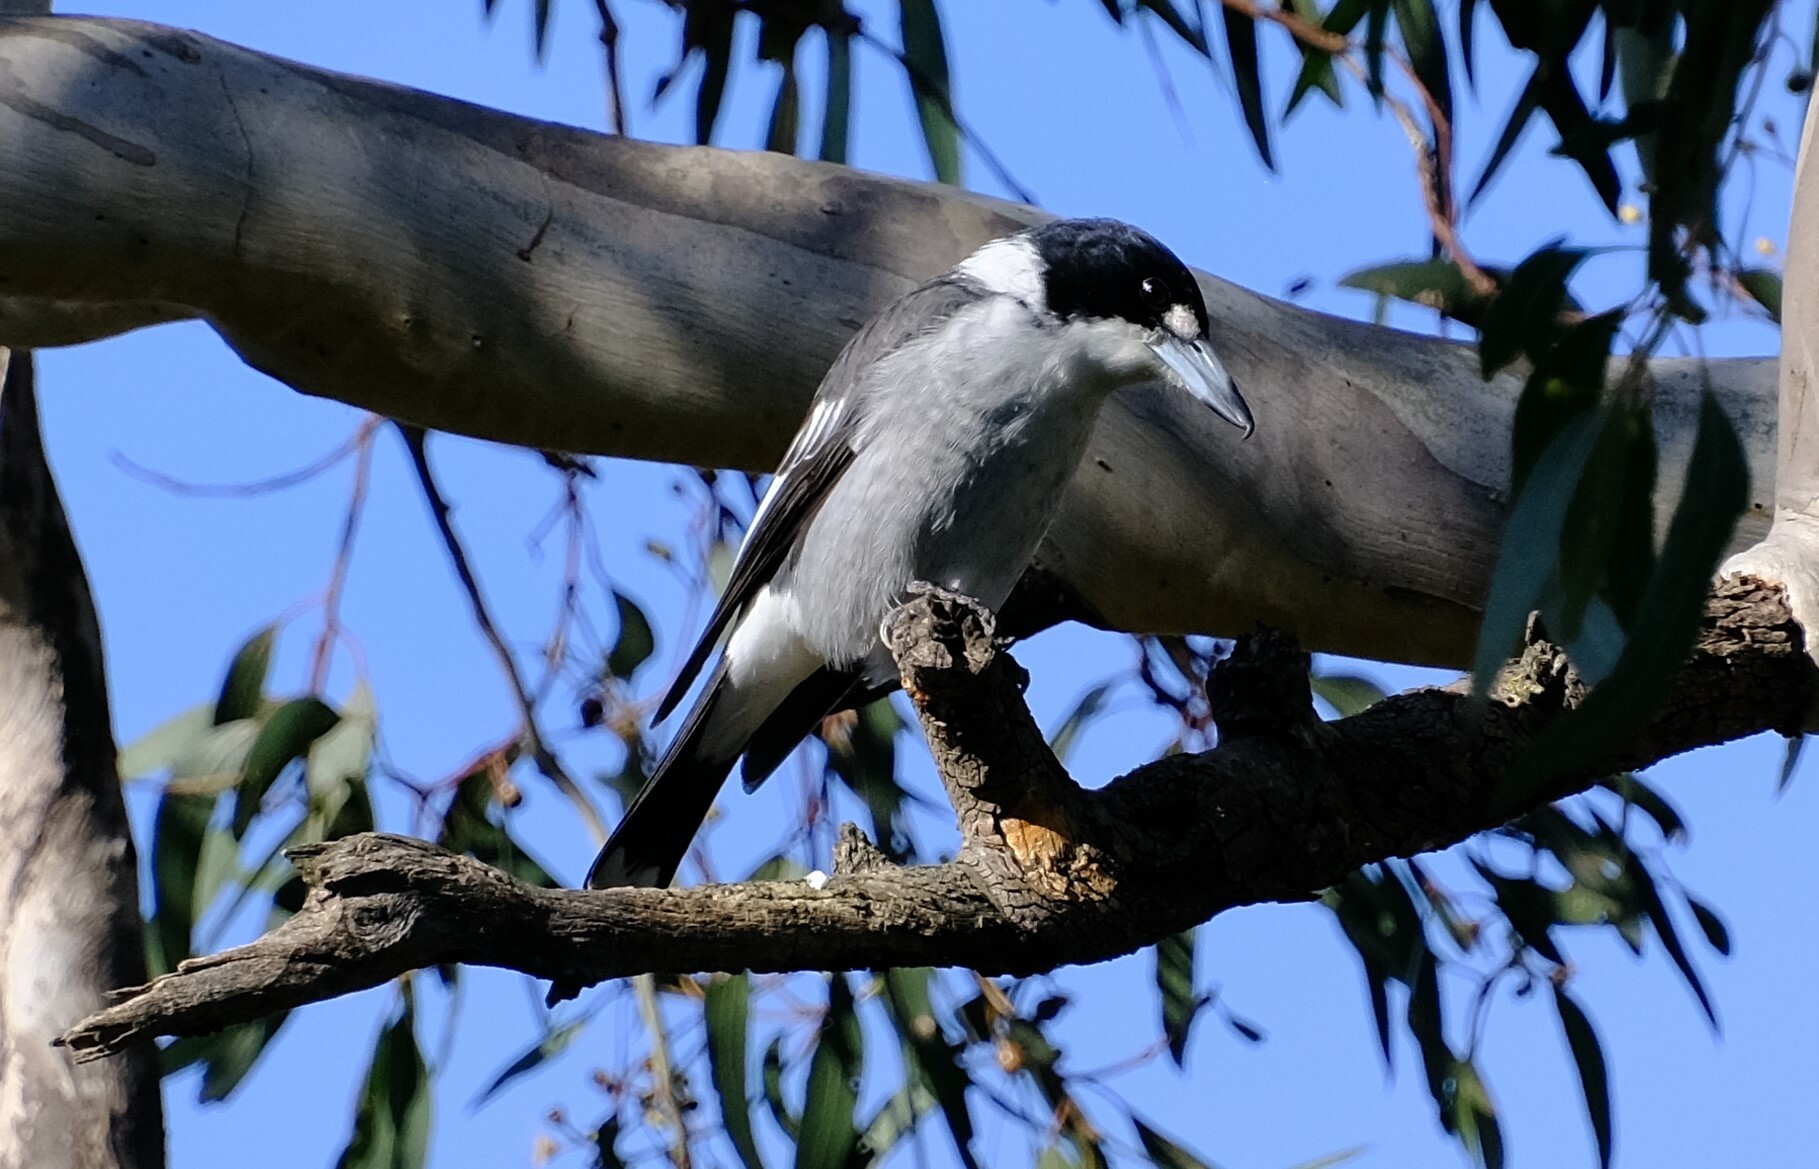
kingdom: Animalia
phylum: Chordata
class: Aves
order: Passeriformes
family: Cracticidae
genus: Cracticus
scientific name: Cracticus torquatus
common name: Grey butcherbird
